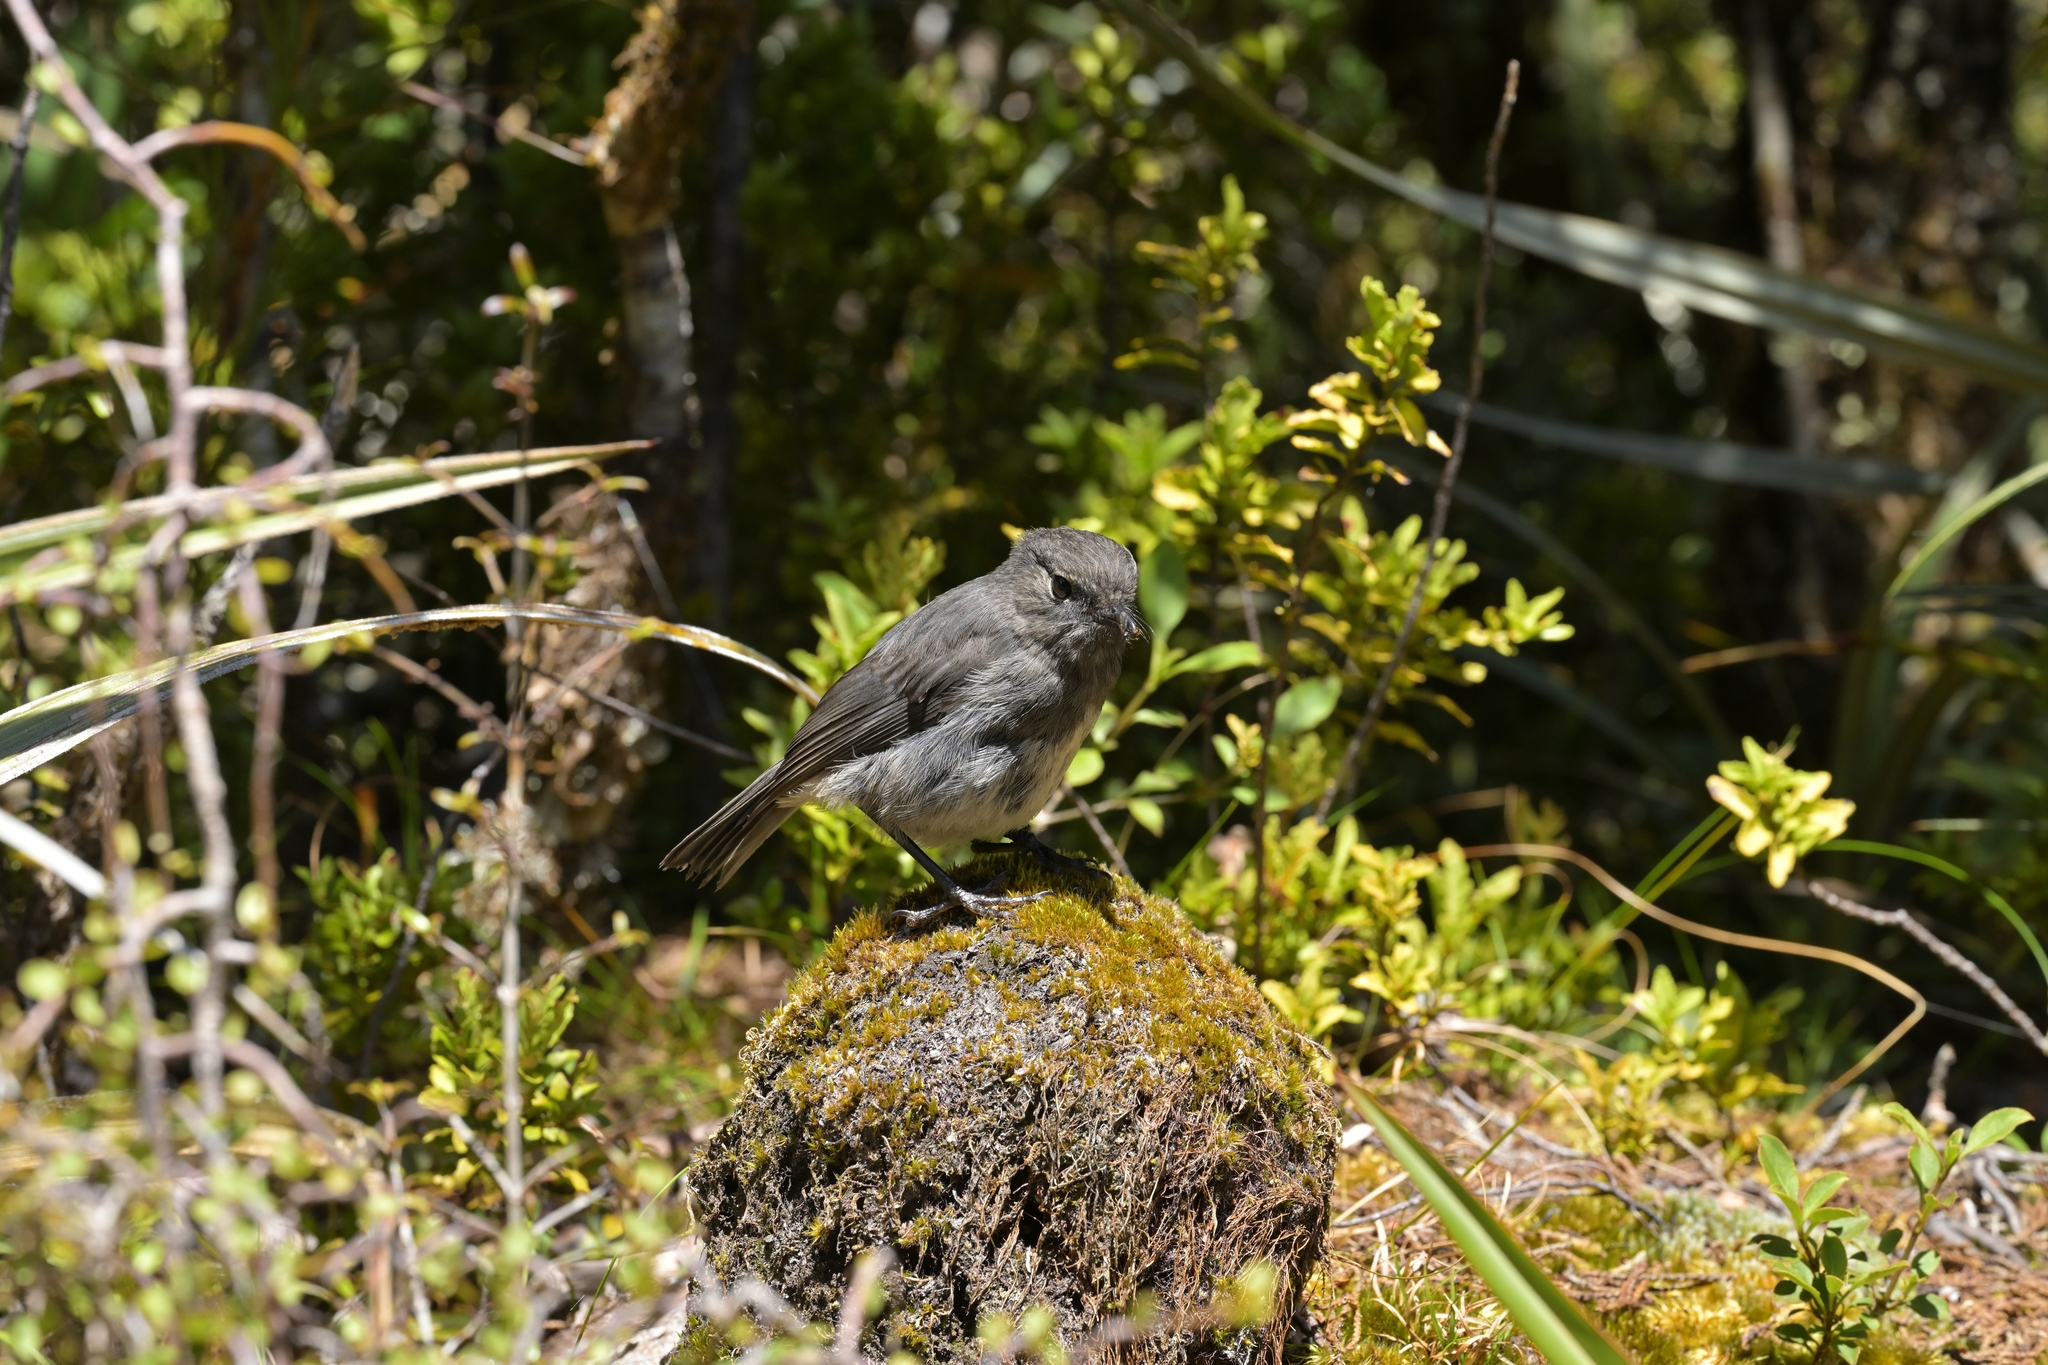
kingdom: Animalia
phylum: Chordata
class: Aves
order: Passeriformes
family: Petroicidae
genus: Petroica
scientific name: Petroica australis
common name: New zealand robin
